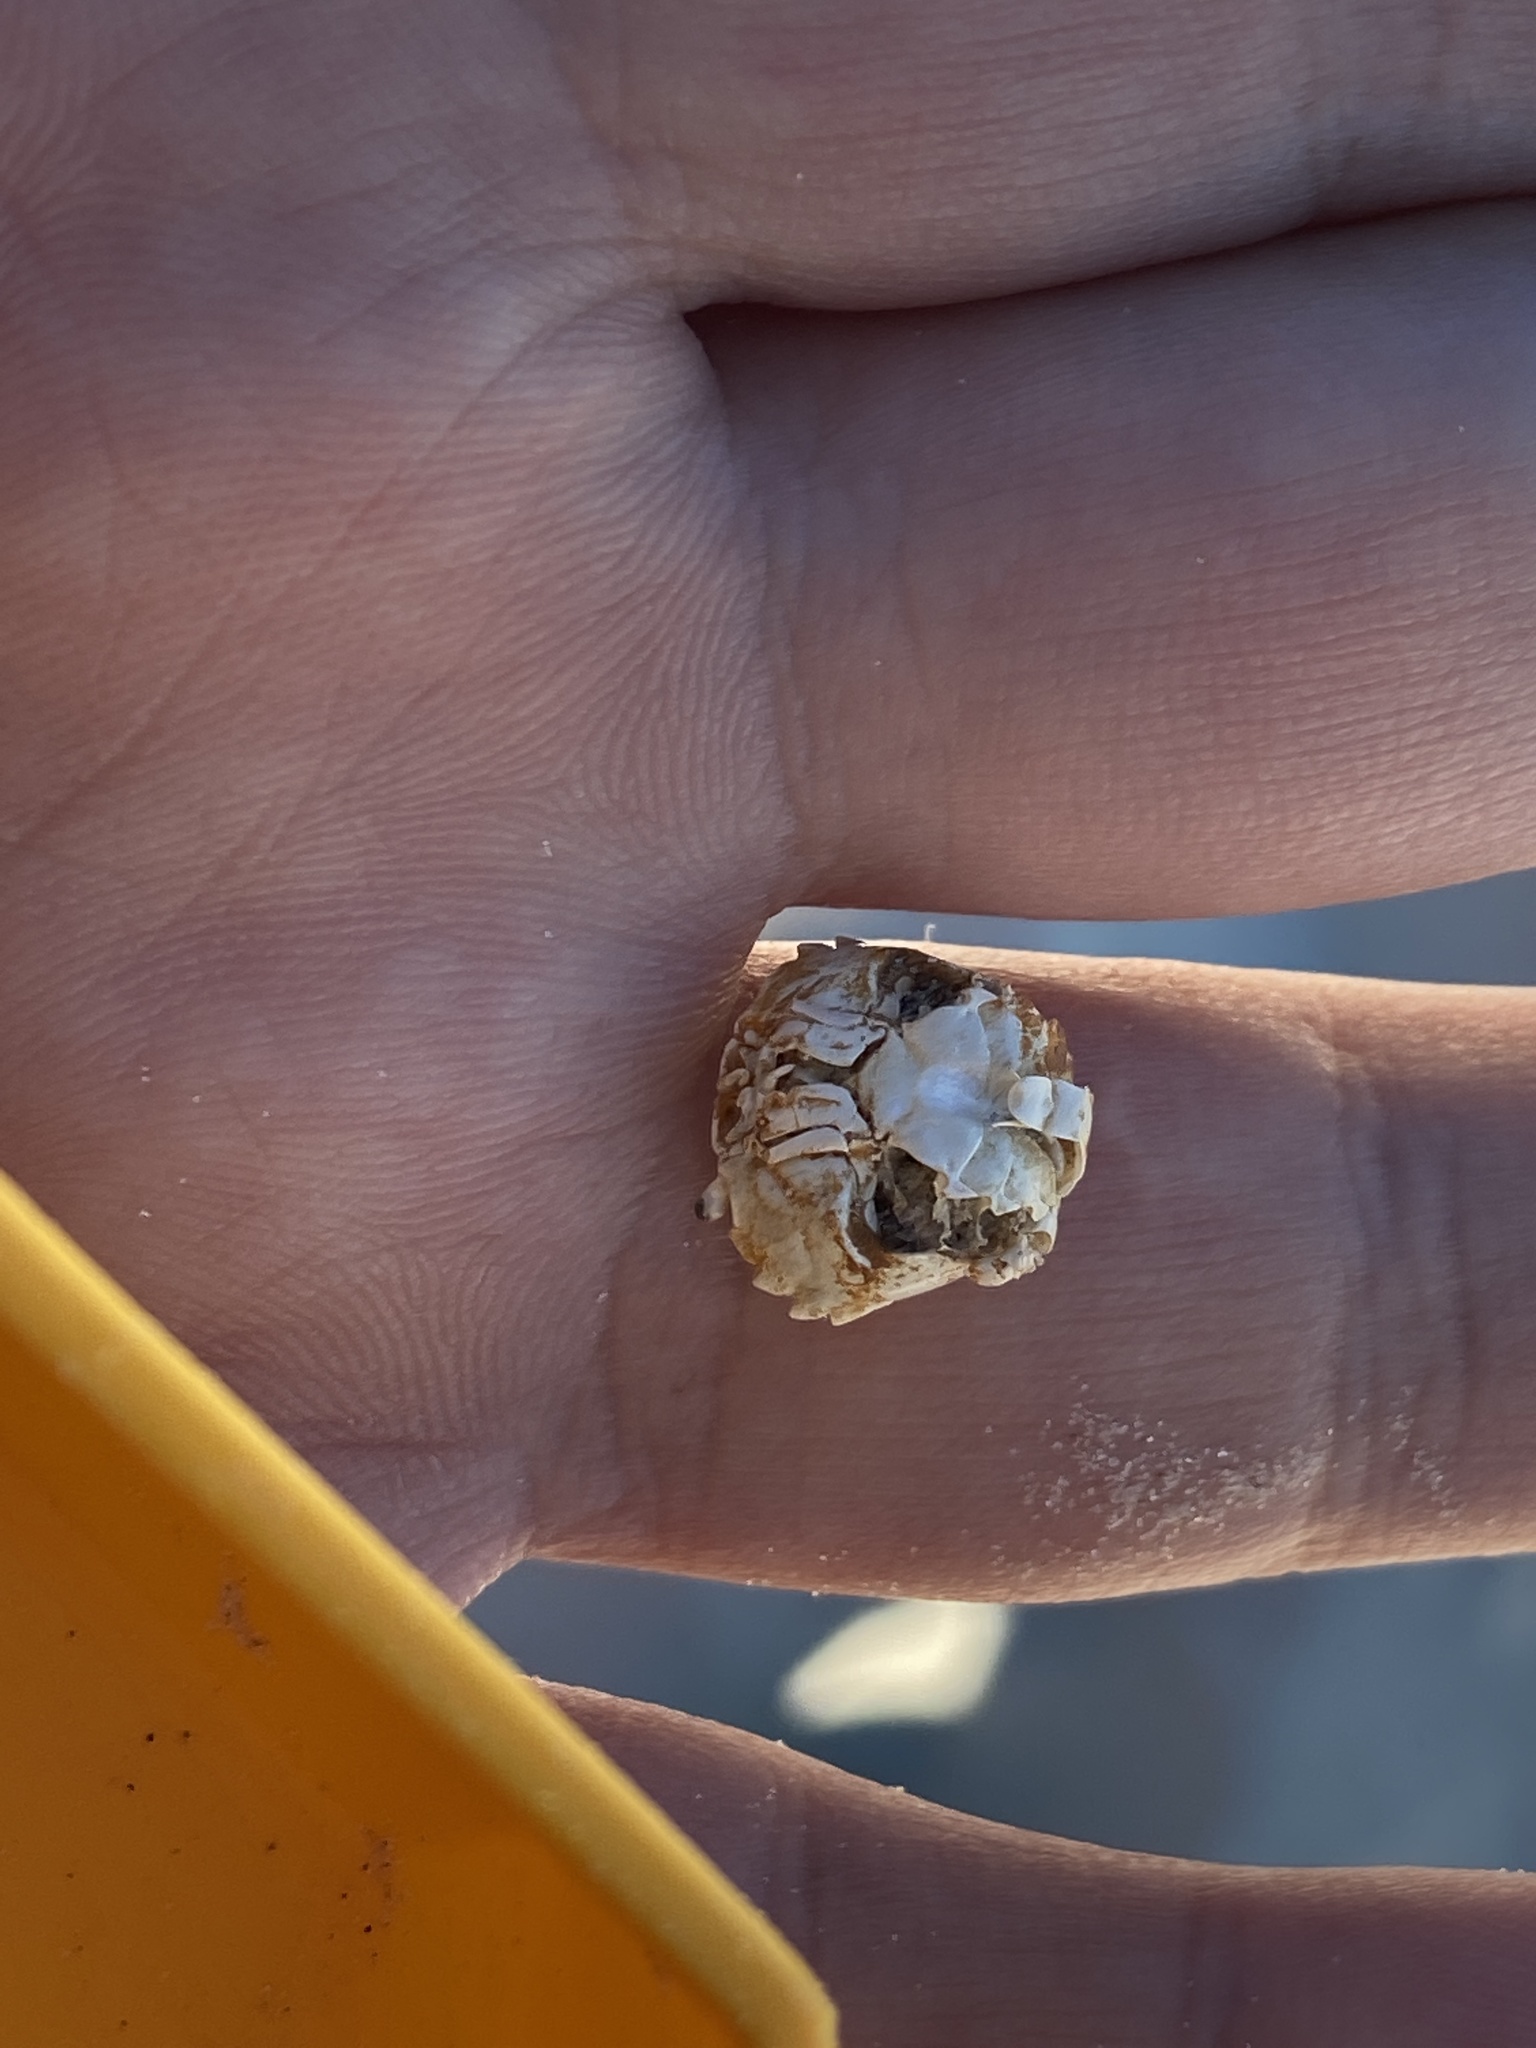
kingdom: Animalia
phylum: Arthropoda
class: Malacostraca
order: Decapoda
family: Panopeidae
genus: Rhithropanopeus
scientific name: Rhithropanopeus harrisii
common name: Dwarf crab
